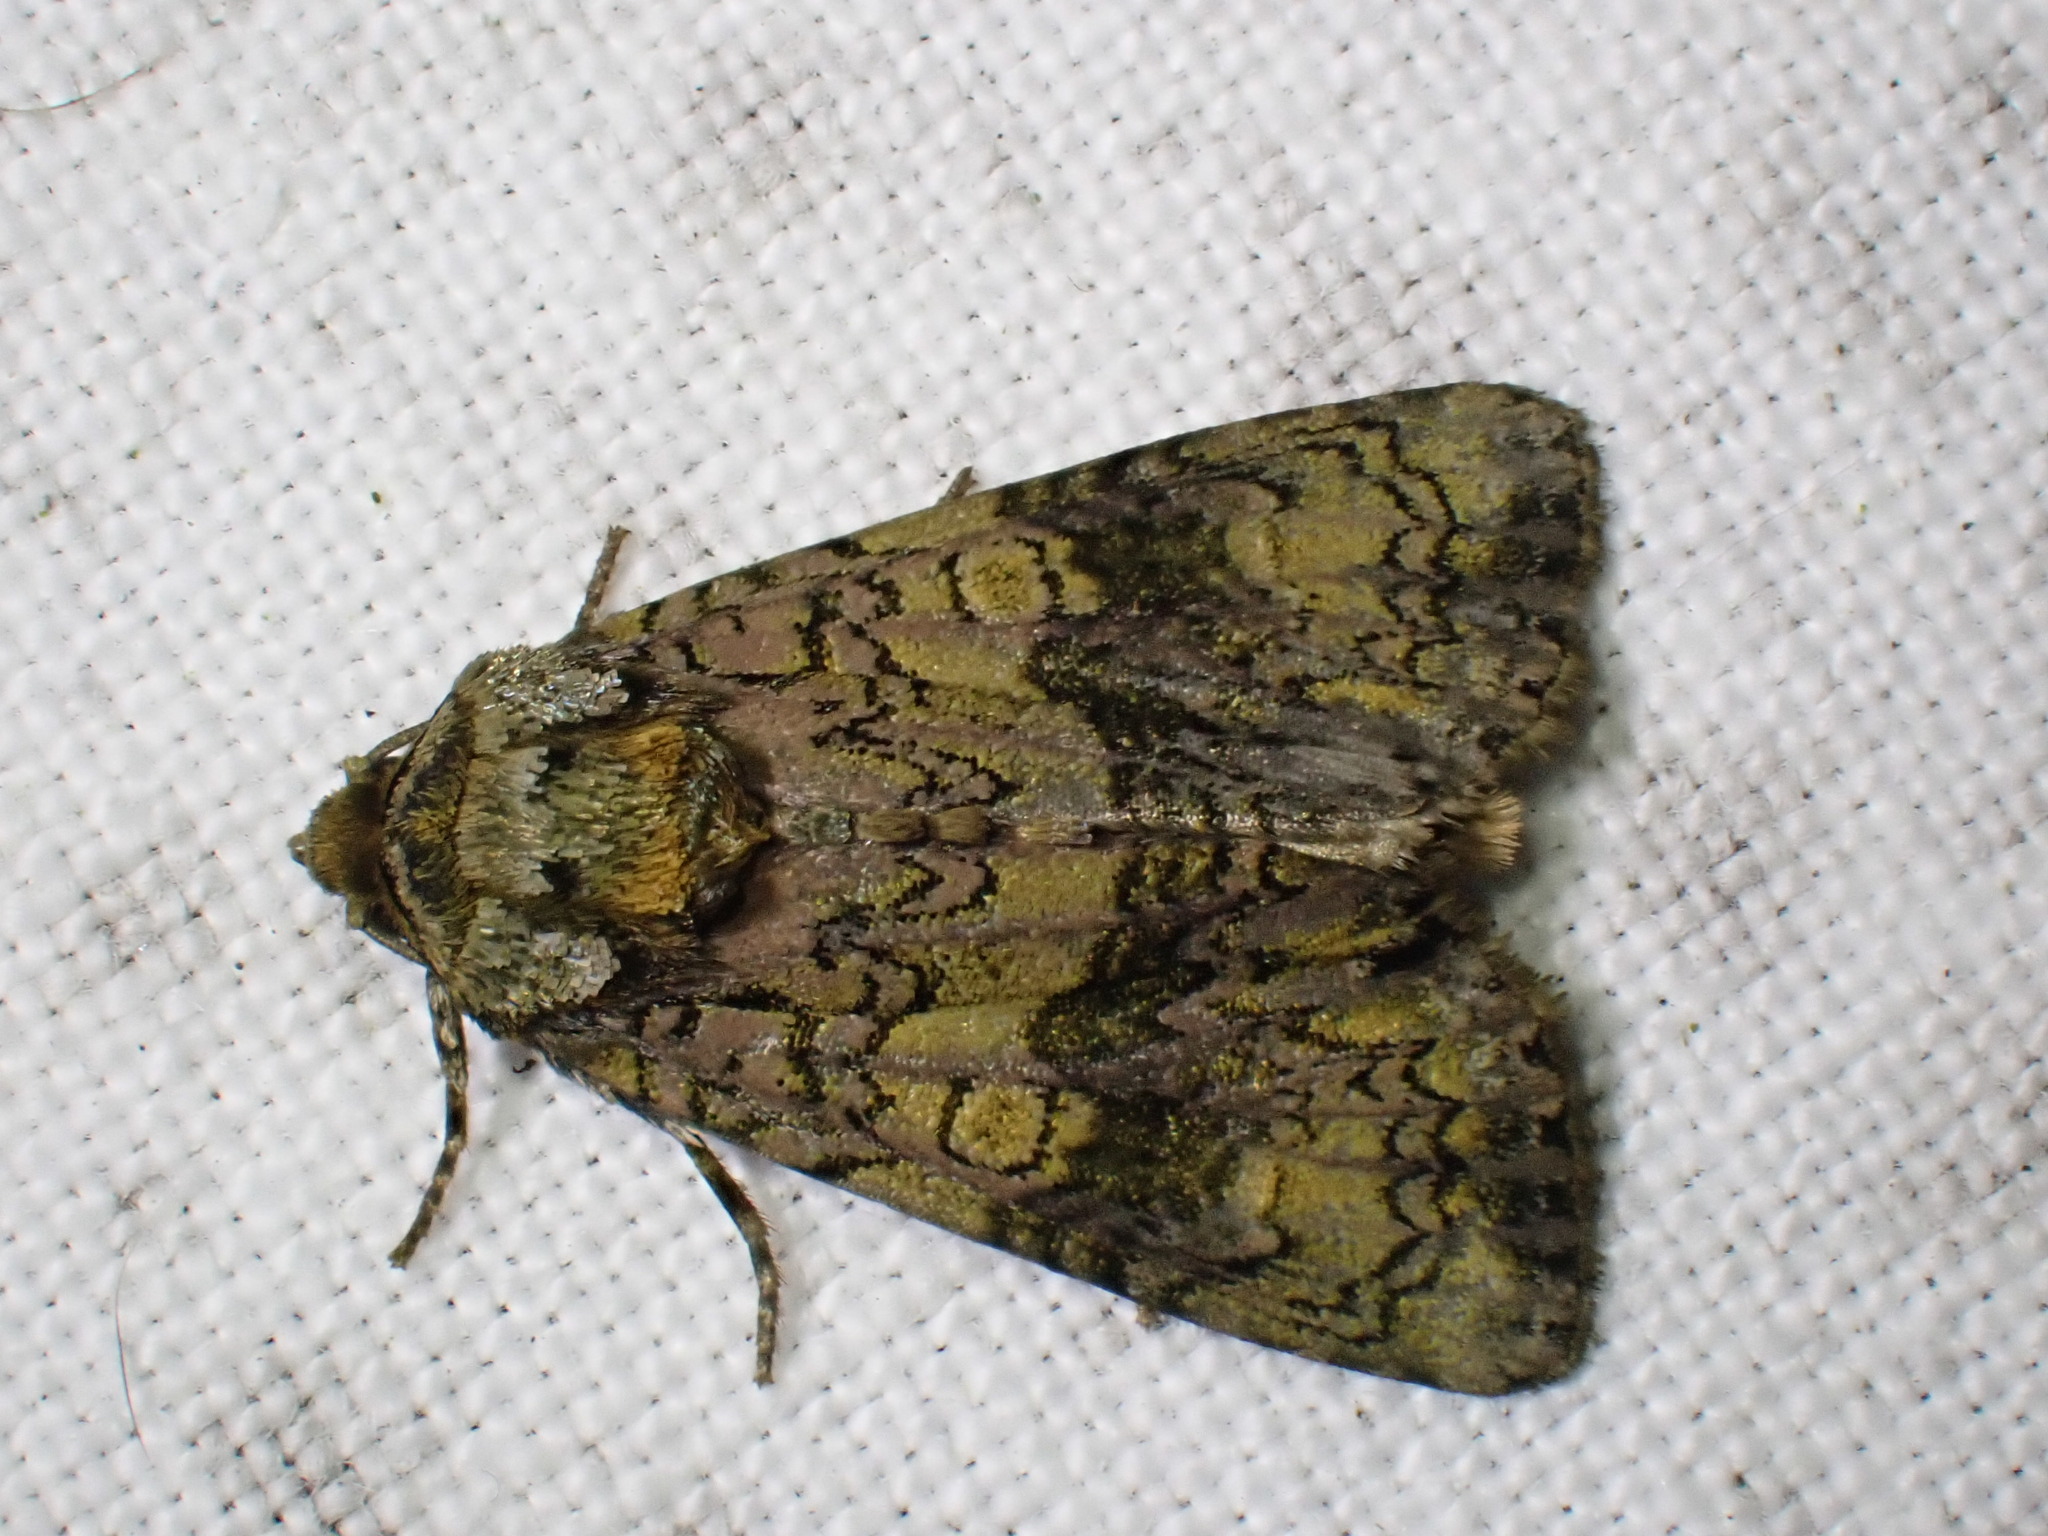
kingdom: Animalia
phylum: Arthropoda
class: Insecta
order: Lepidoptera
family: Noctuidae
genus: Craniophora
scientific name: Craniophora ligustri
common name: Coronet
